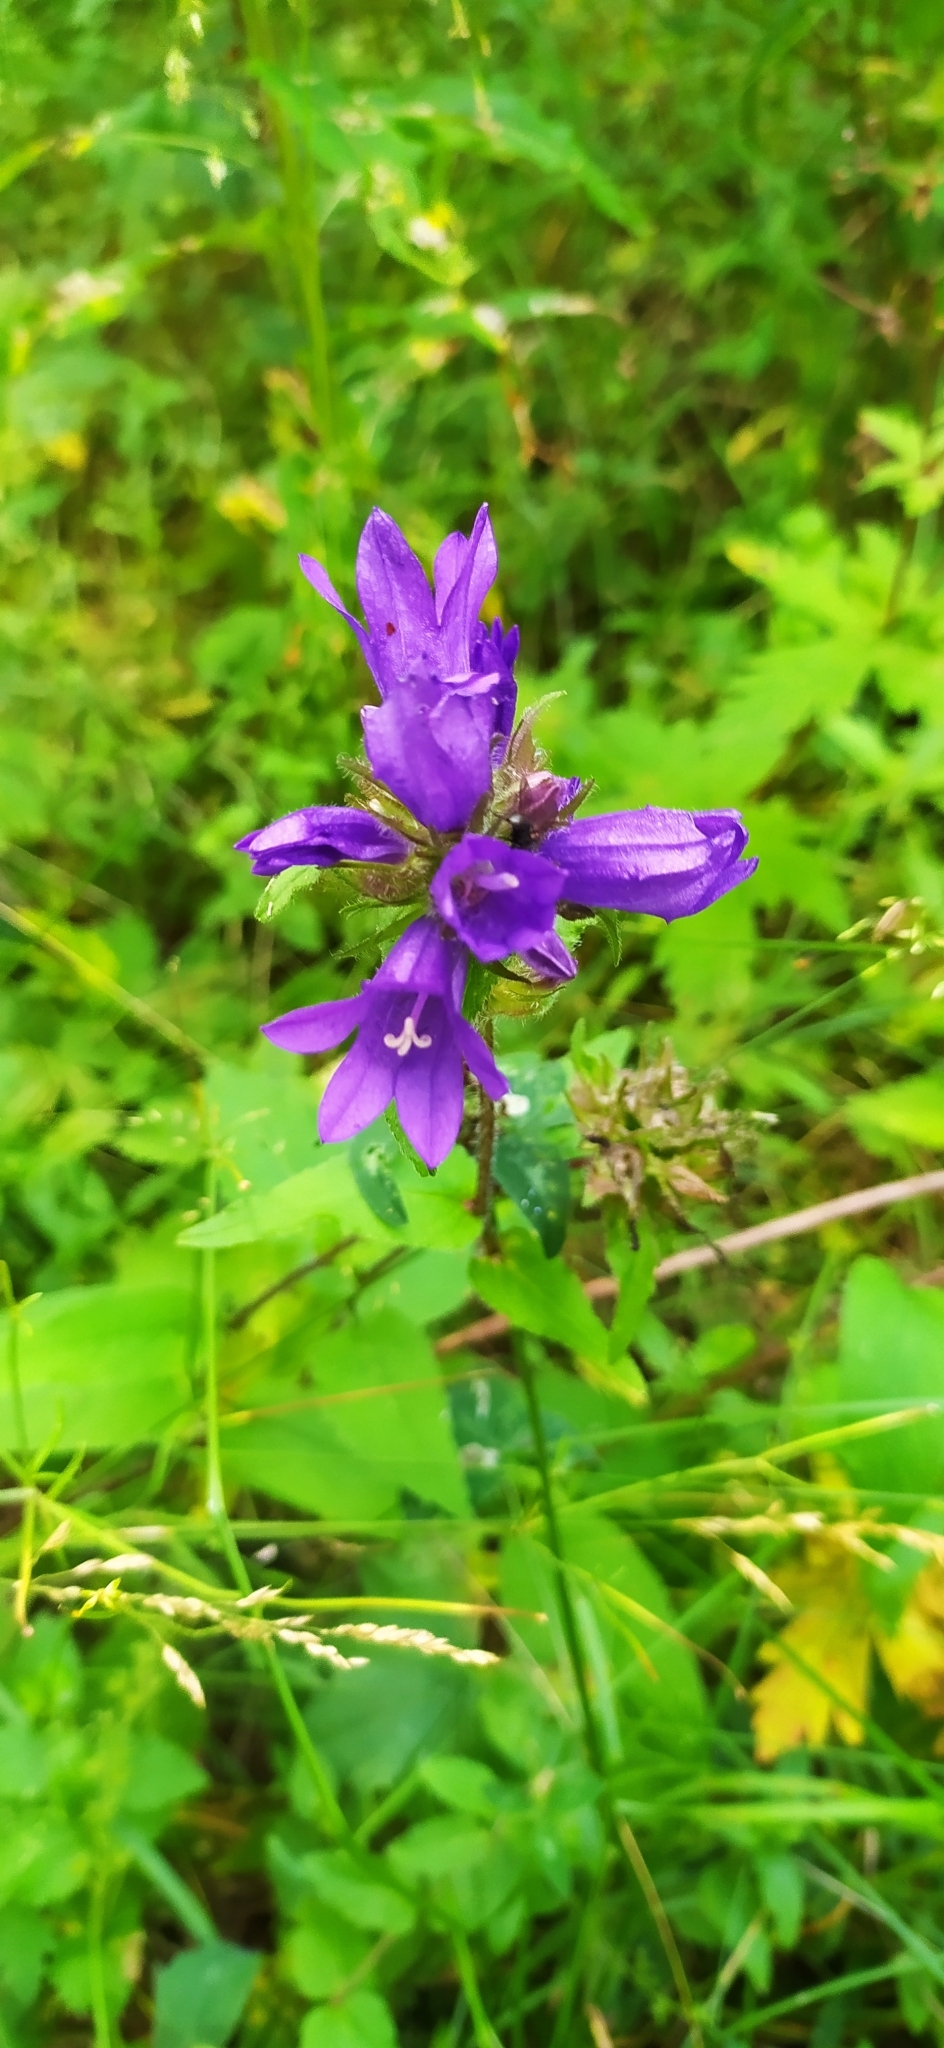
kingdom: Plantae
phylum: Tracheophyta
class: Magnoliopsida
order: Asterales
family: Campanulaceae
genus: Campanula
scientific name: Campanula glomerata
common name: Clustered bellflower
